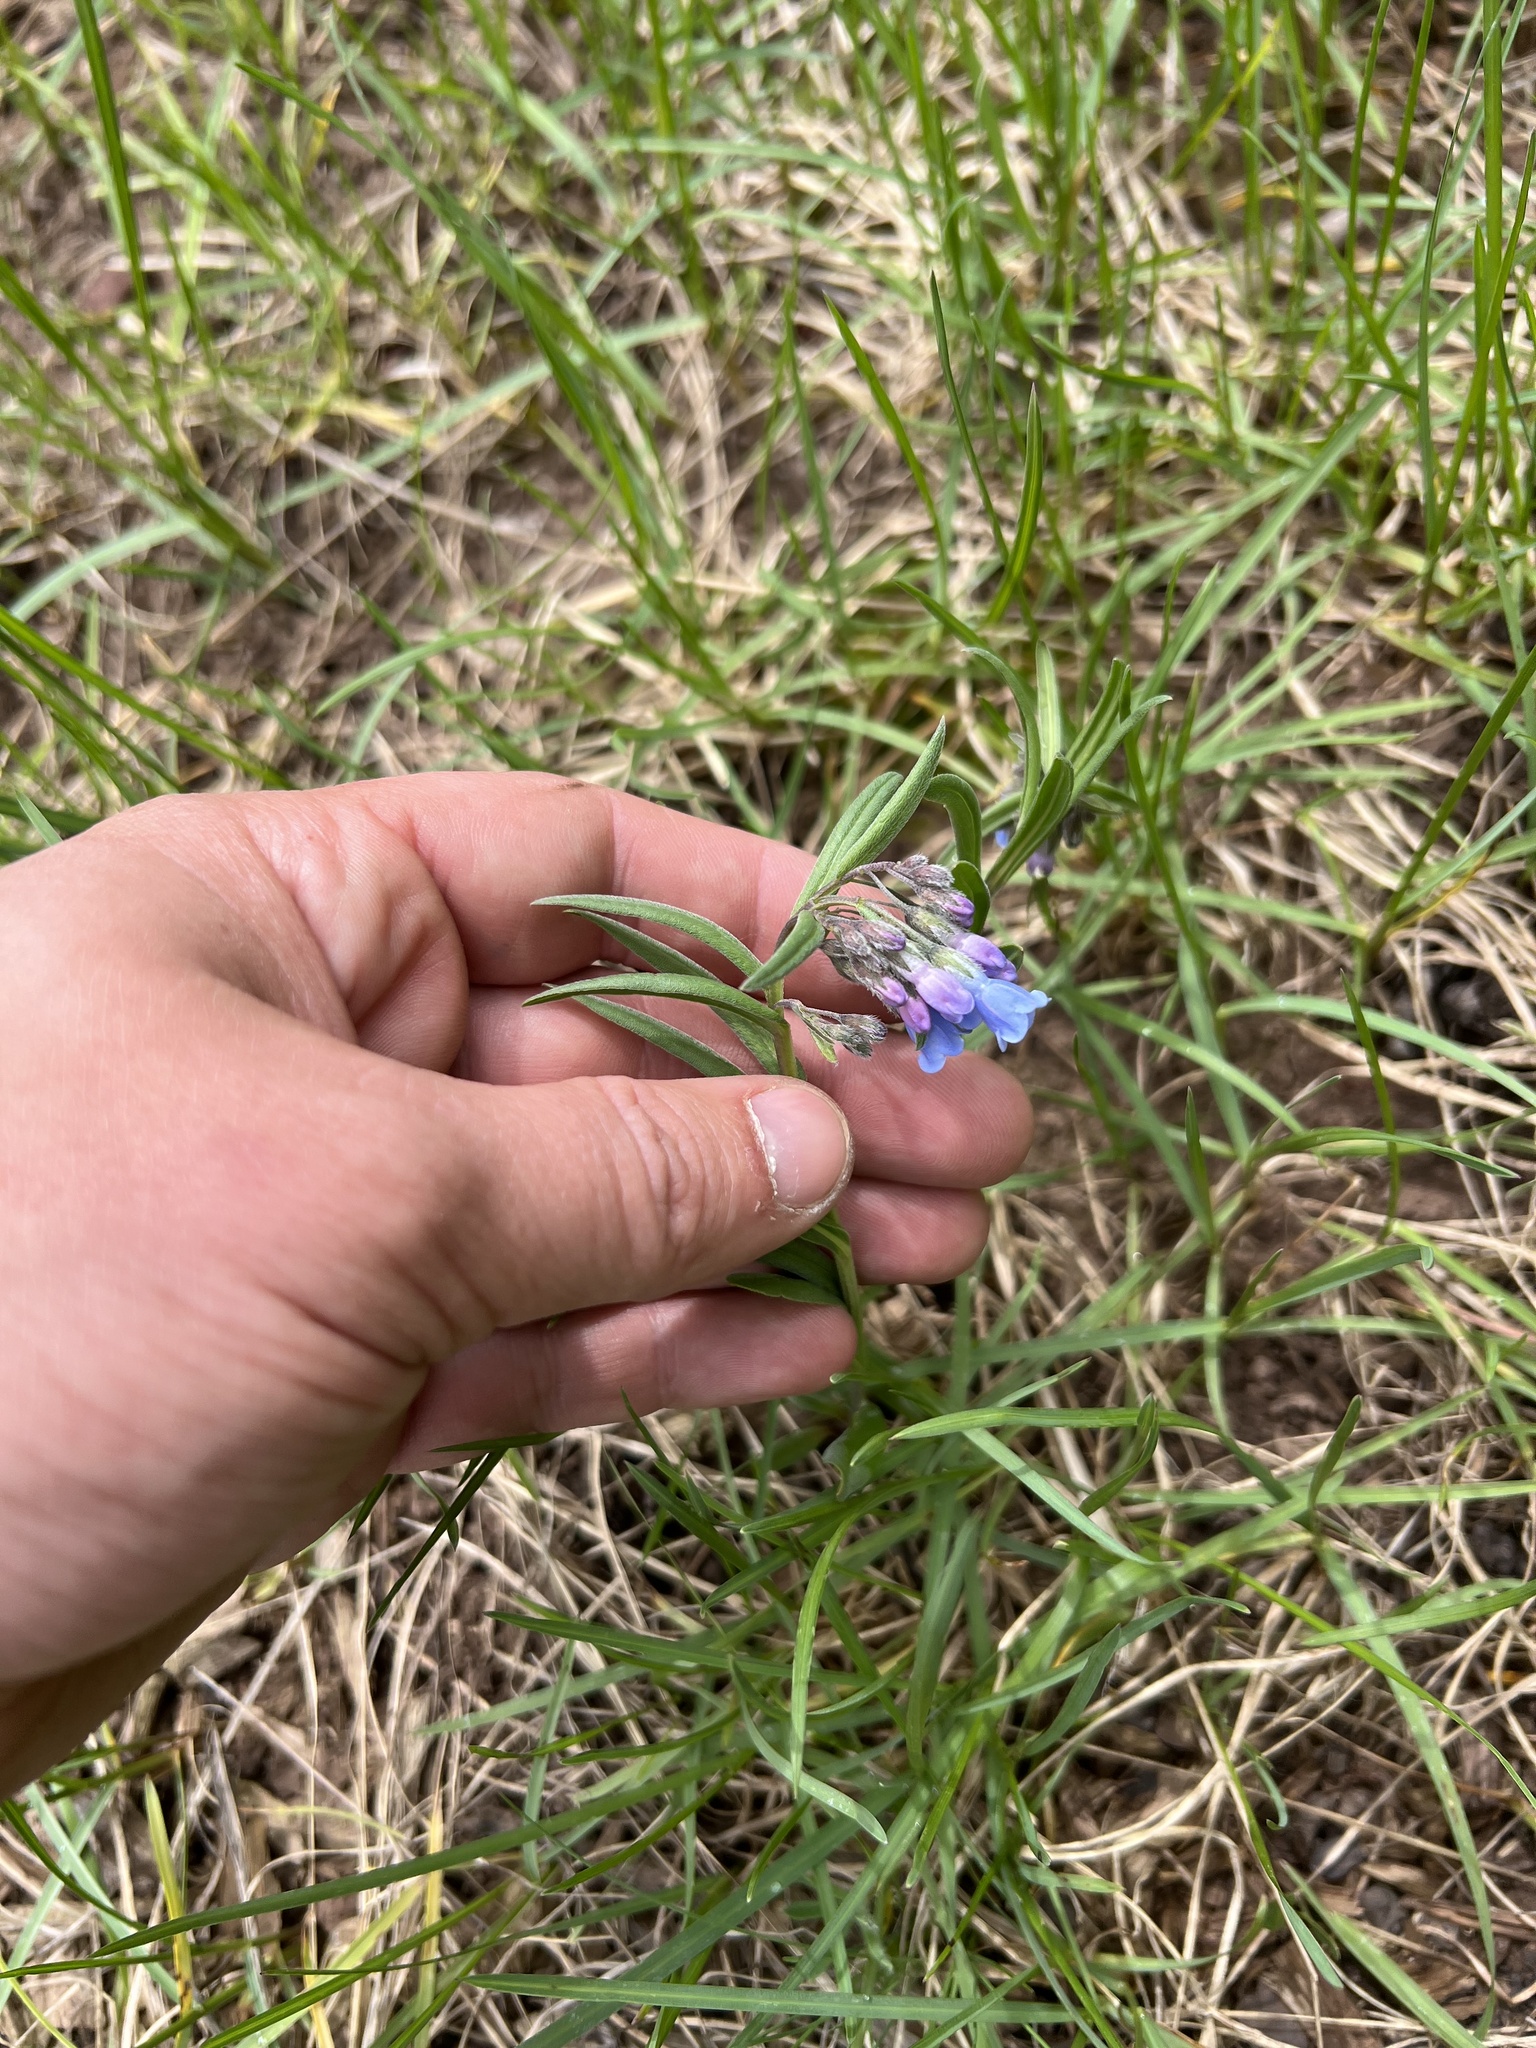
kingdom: Plantae
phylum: Tracheophyta
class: Magnoliopsida
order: Boraginales
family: Boraginaceae
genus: Mertensia
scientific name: Mertensia oblongifolia
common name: Sagebrush bluebells
